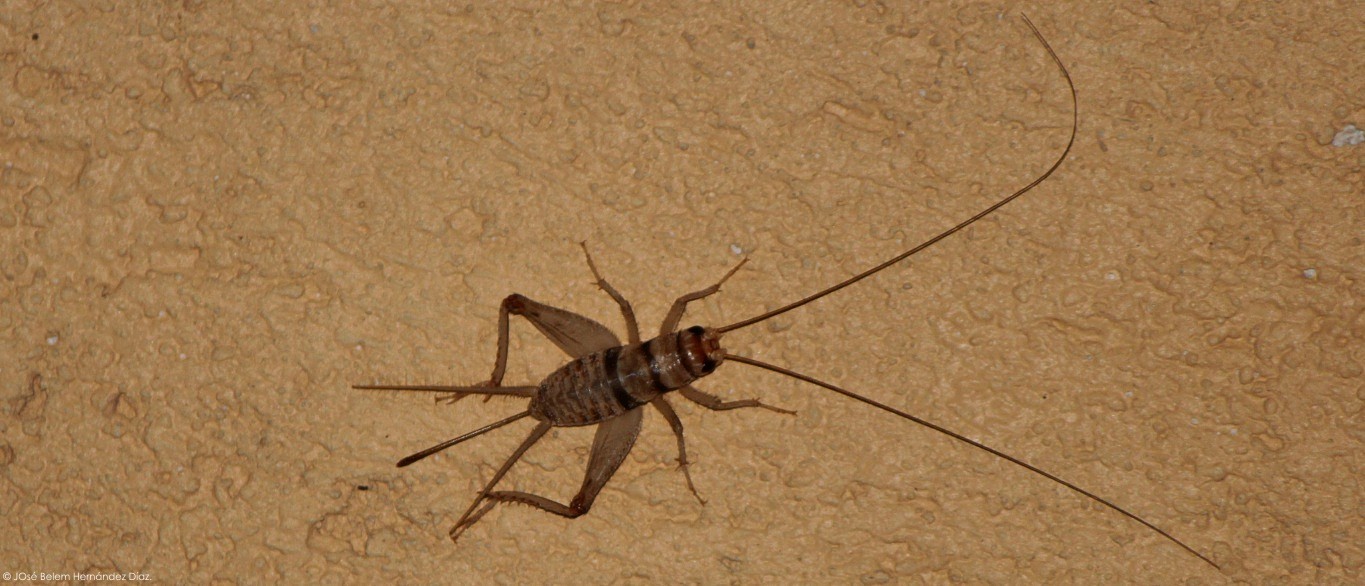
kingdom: Animalia
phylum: Arthropoda
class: Insecta
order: Orthoptera
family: Gryllidae
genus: Gryllodes
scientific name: Gryllodes sigillatus
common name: Tropical house cricket
